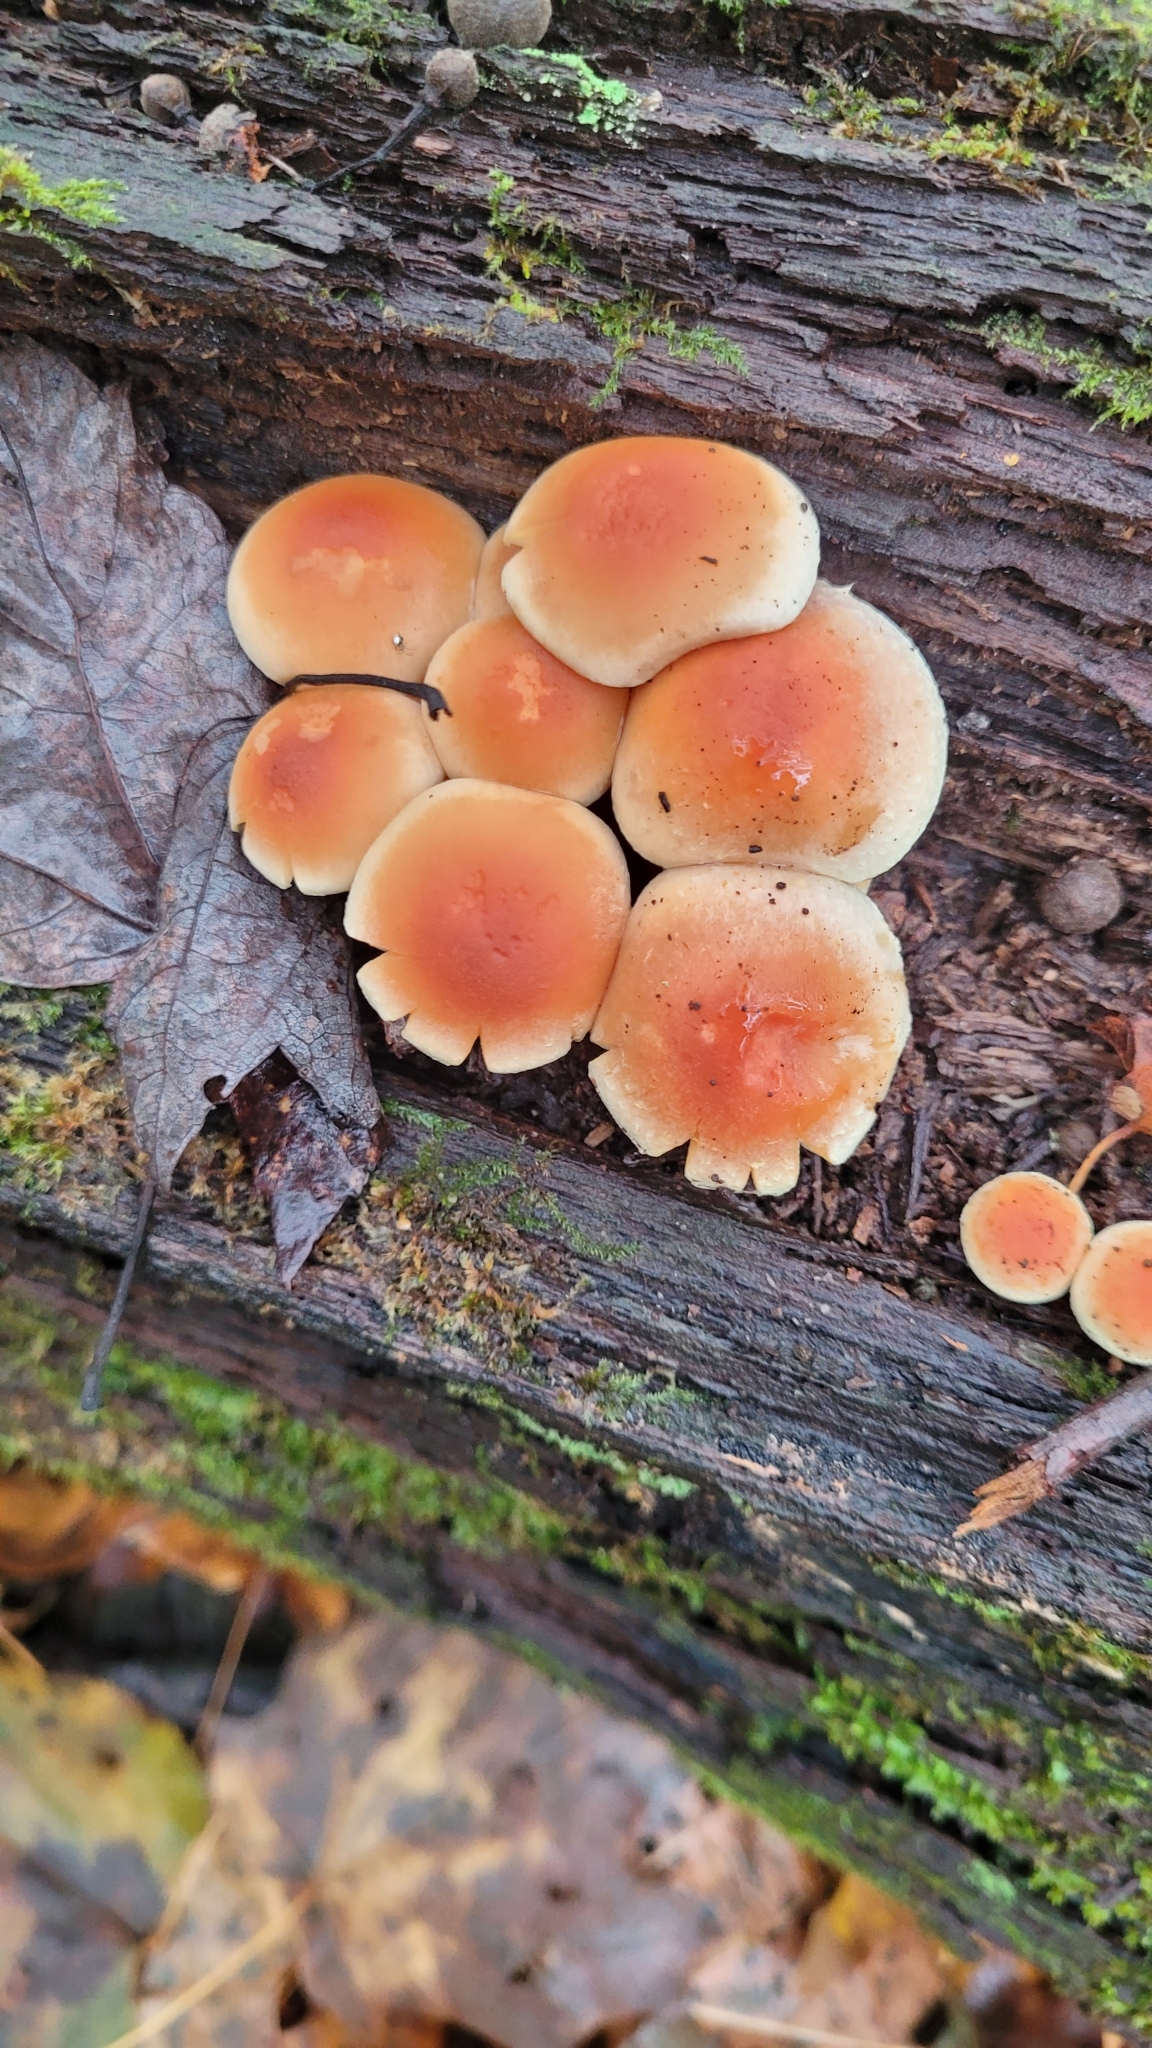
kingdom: Fungi
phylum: Basidiomycota
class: Agaricomycetes
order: Agaricales
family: Strophariaceae
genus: Hypholoma
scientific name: Hypholoma lateritium
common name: Brick caps
